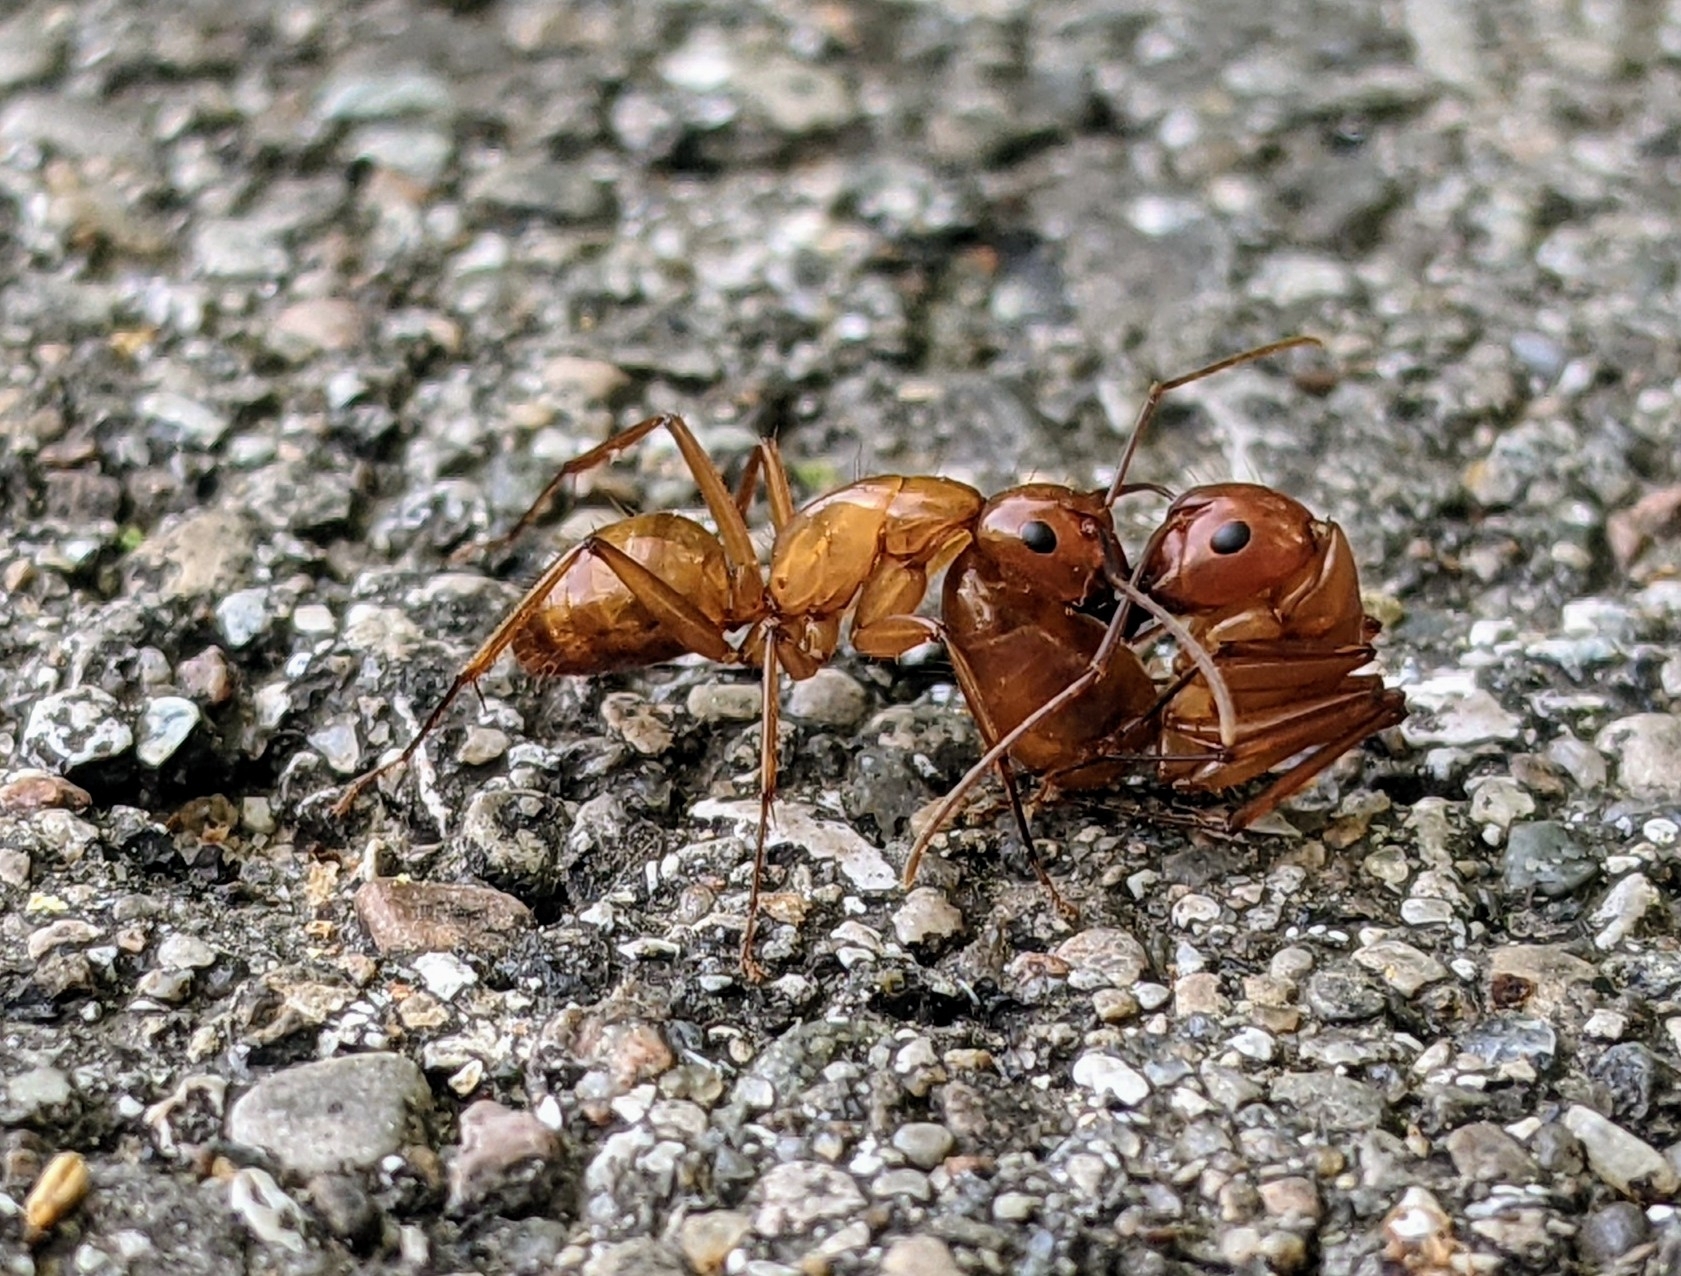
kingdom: Animalia
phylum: Arthropoda
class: Insecta
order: Hymenoptera
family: Formicidae
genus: Camponotus
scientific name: Camponotus castaneus
